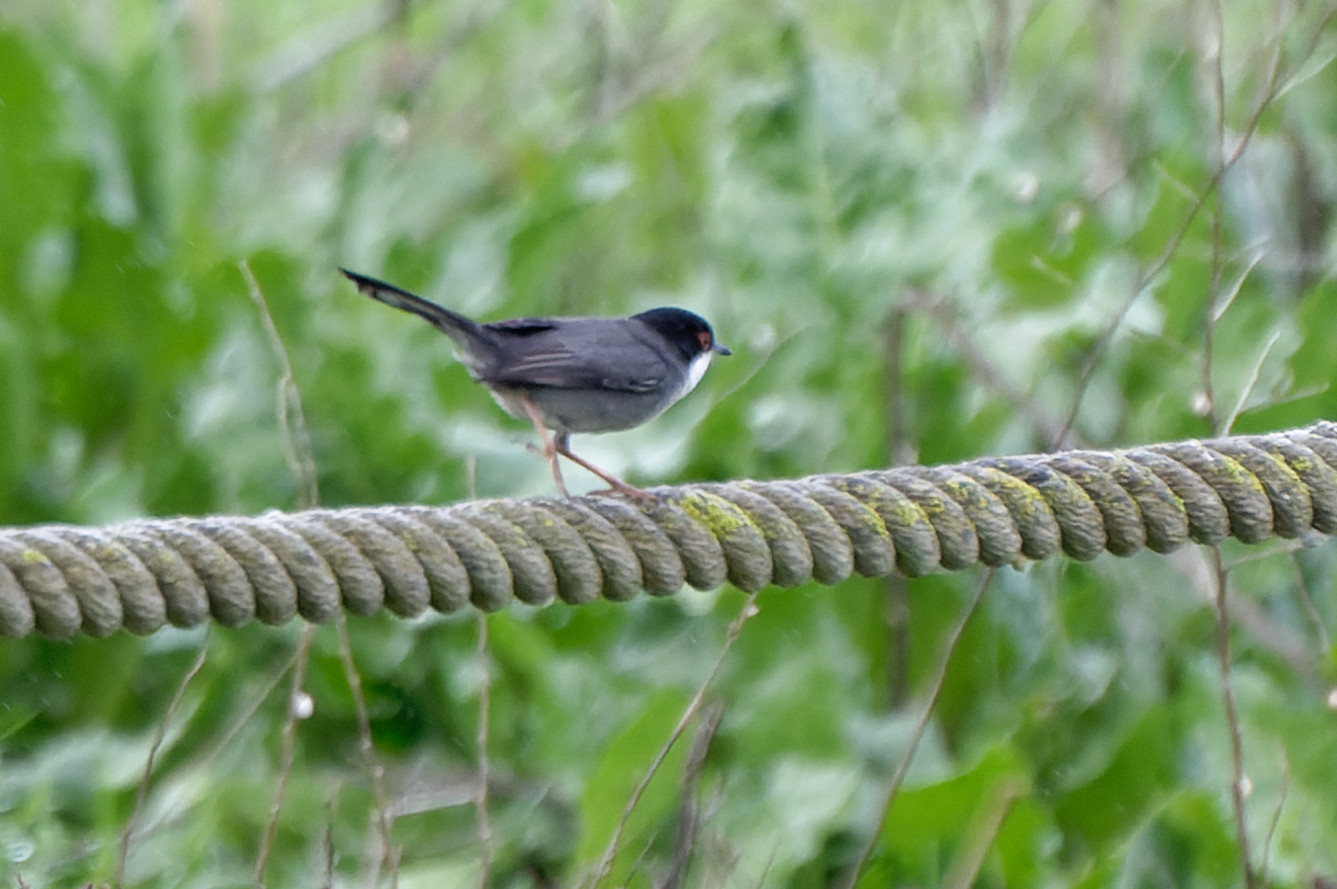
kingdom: Animalia
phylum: Chordata
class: Aves
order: Passeriformes
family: Sylviidae
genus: Curruca
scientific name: Curruca melanocephala
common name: Sardinian warbler
